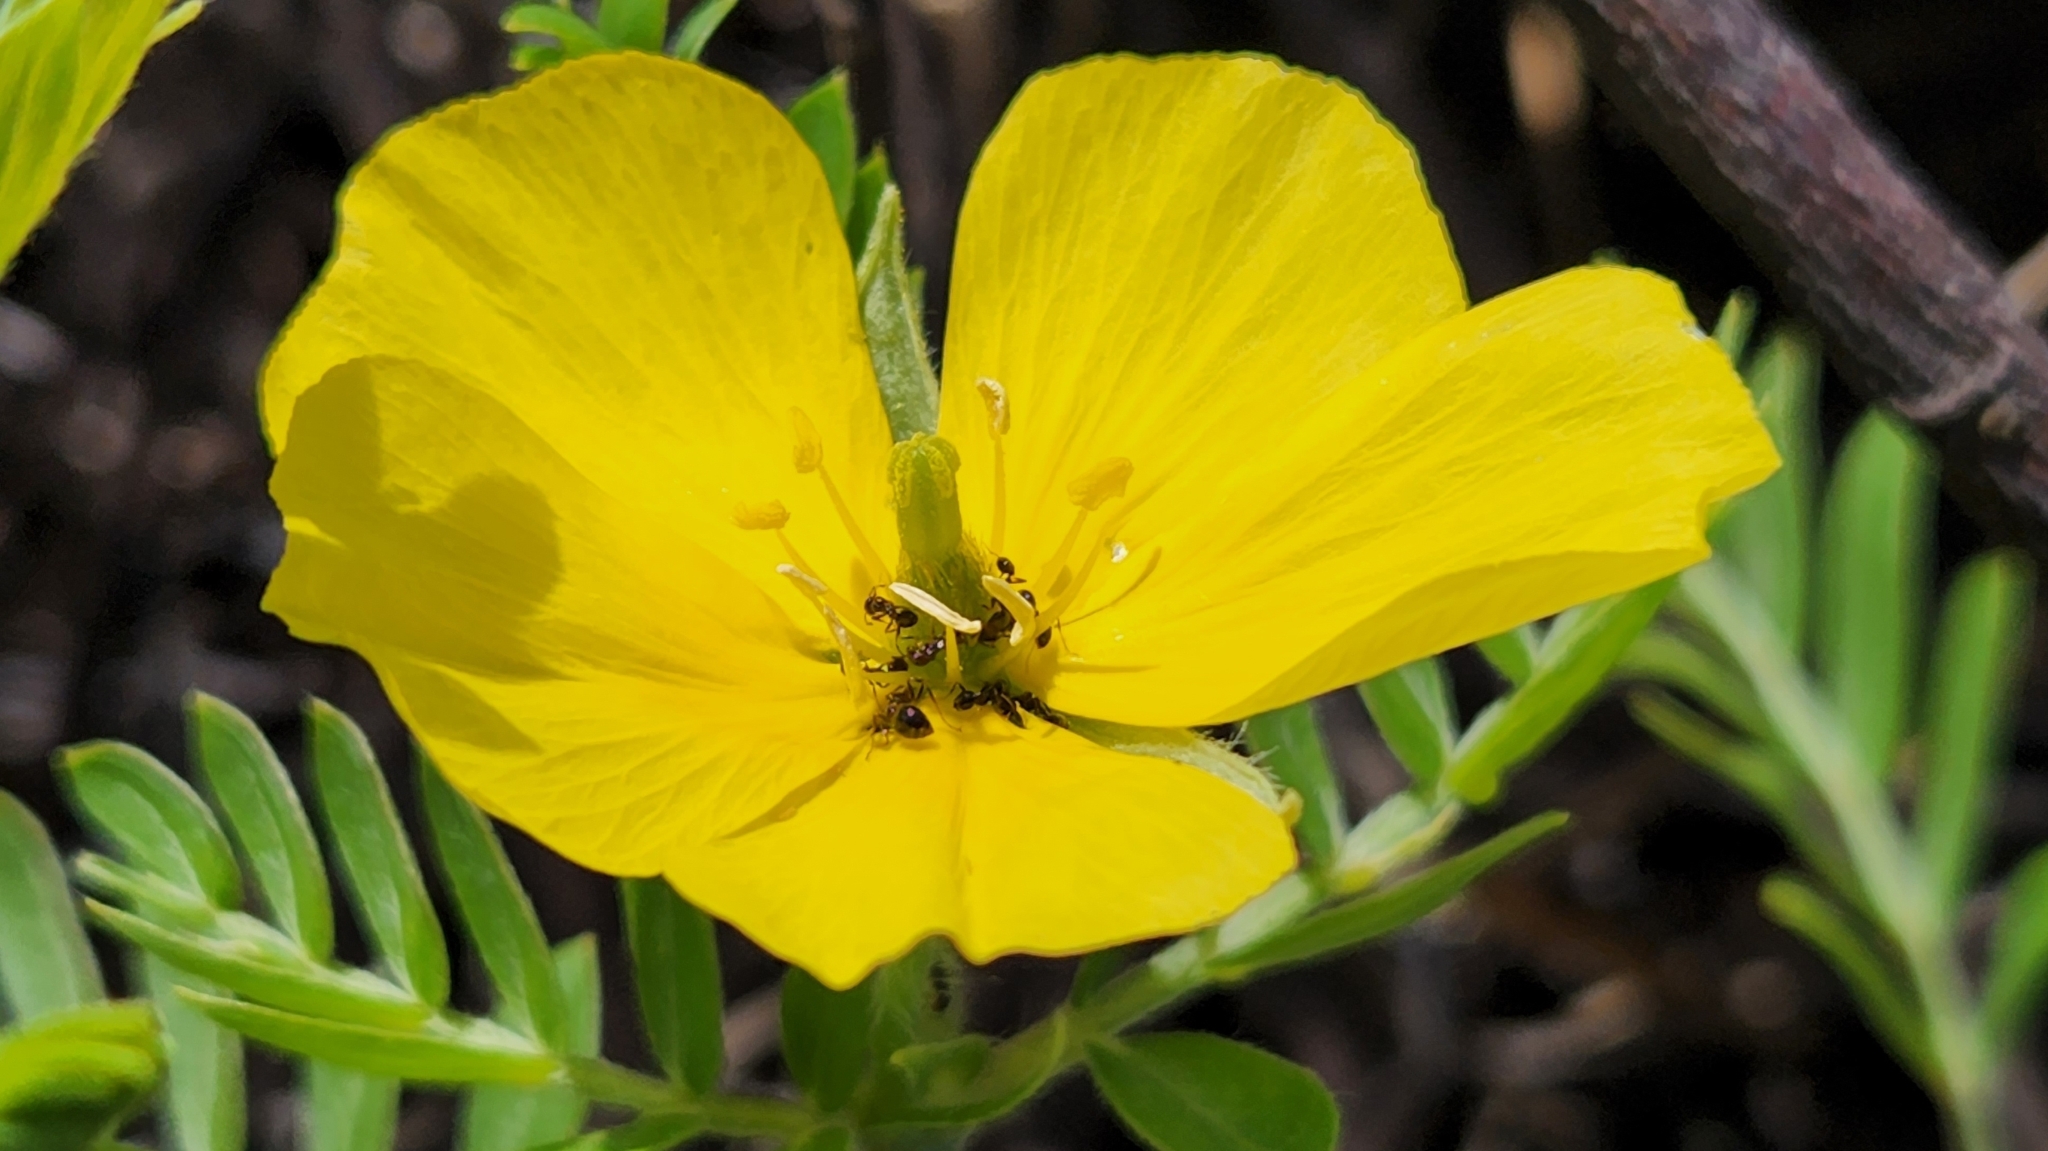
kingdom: Plantae
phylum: Tracheophyta
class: Magnoliopsida
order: Zygophyllales
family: Zygophyllaceae
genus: Tribulus
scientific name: Tribulus cistoides
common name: Jamaican feverplant
